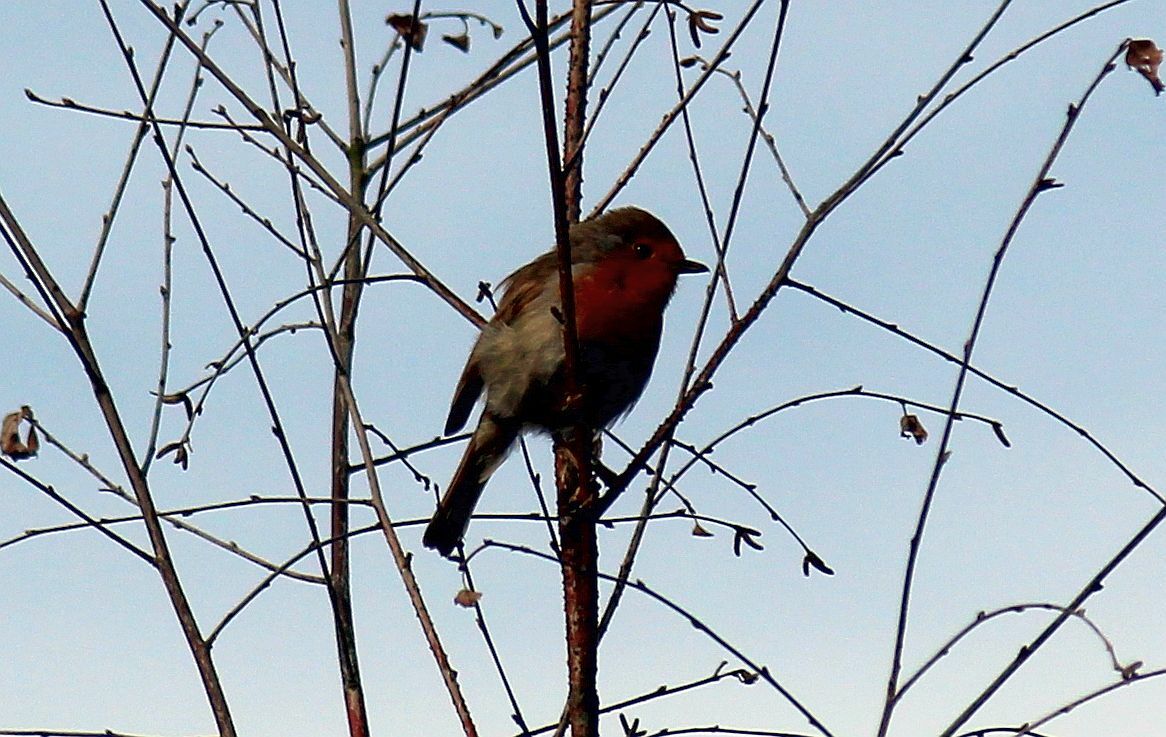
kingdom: Animalia
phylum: Chordata
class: Aves
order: Passeriformes
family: Muscicapidae
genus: Erithacus
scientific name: Erithacus rubecula
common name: European robin
